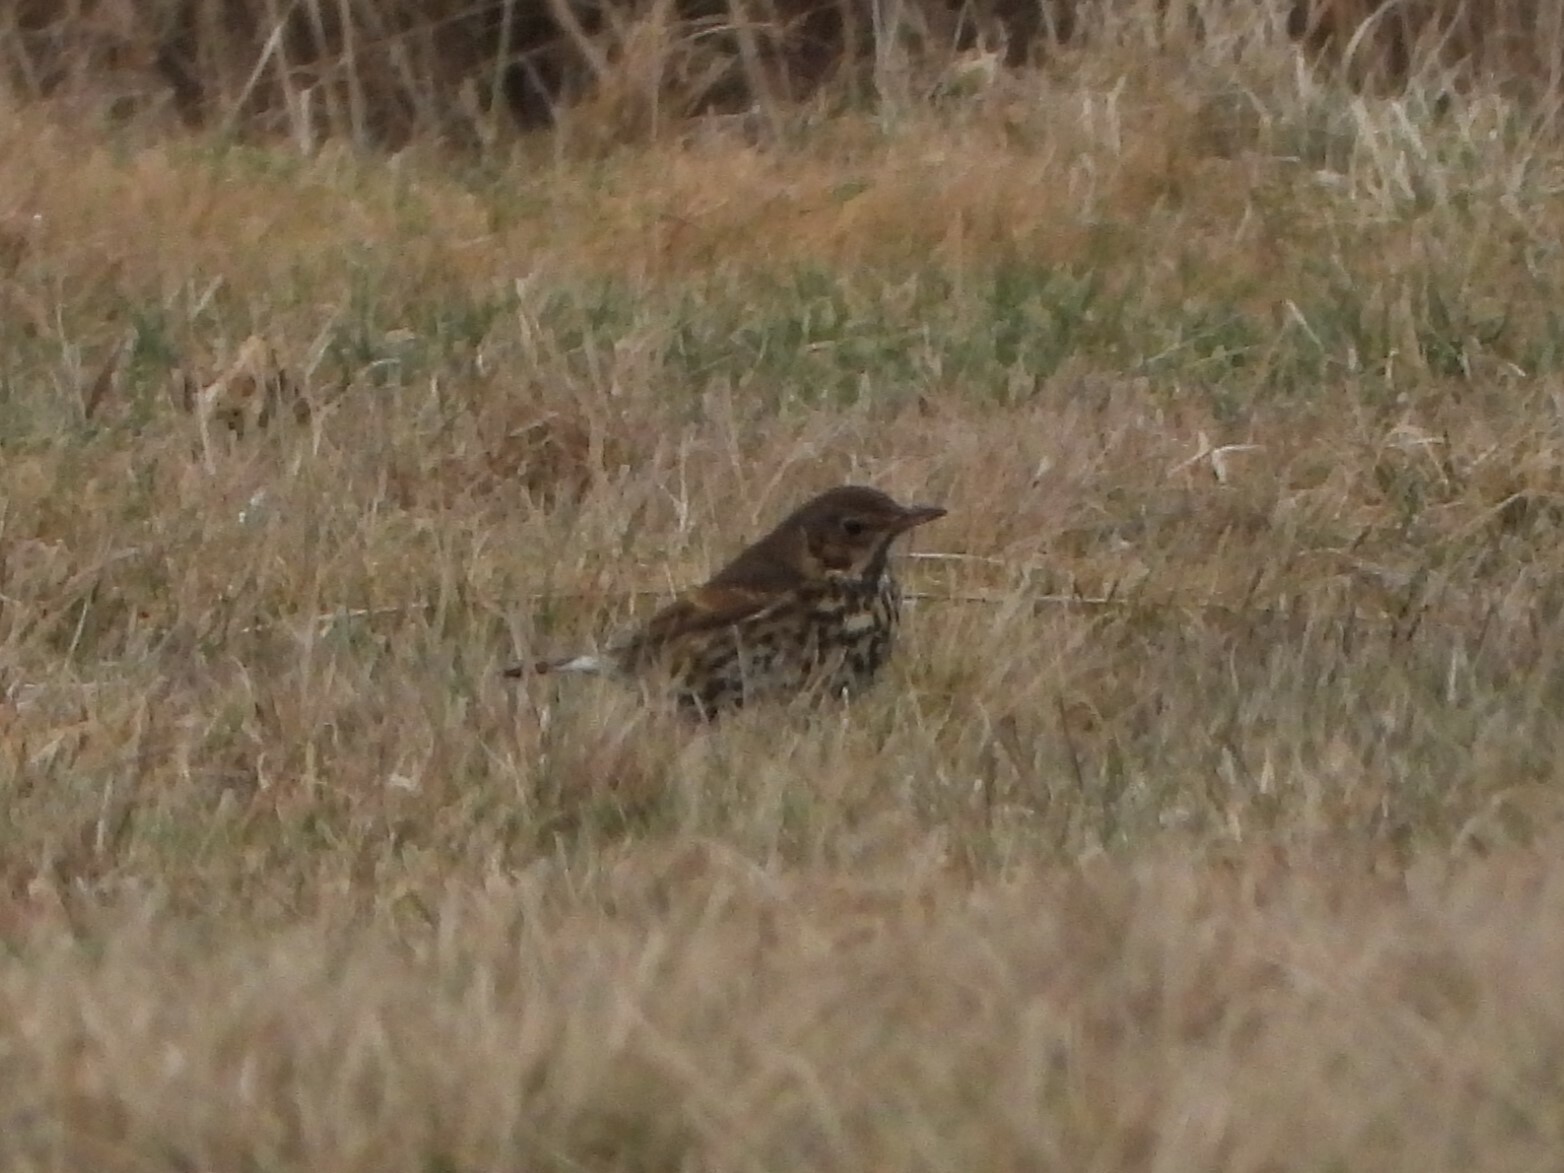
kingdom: Animalia
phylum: Chordata
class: Aves
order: Passeriformes
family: Turdidae
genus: Turdus
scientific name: Turdus philomelos
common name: Song thrush
